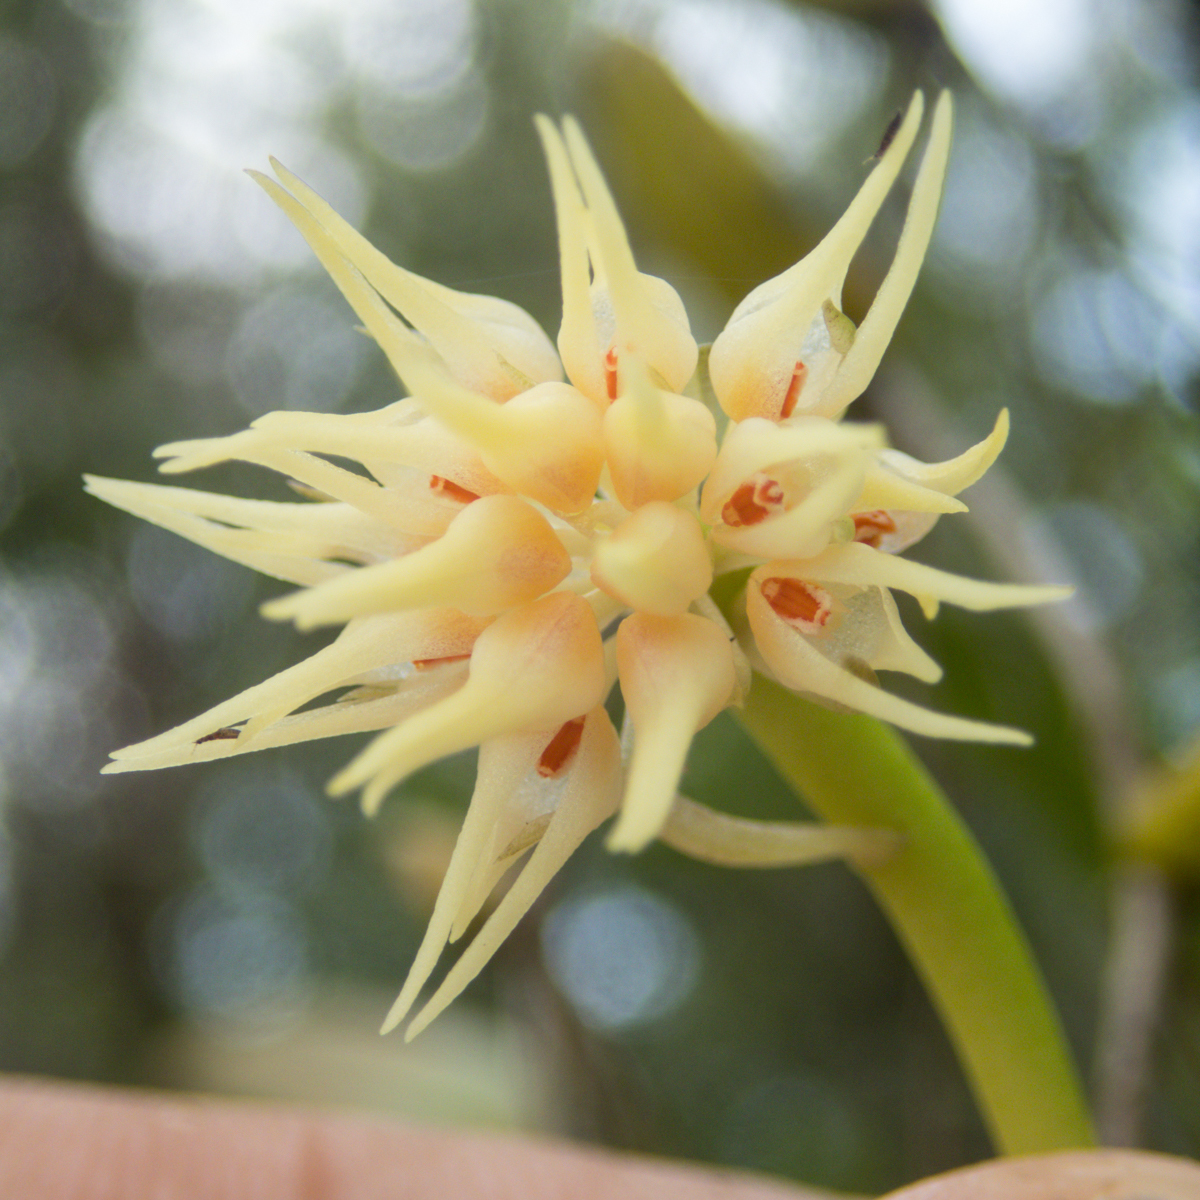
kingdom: Plantae
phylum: Tracheophyta
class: Liliopsida
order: Asparagales
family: Orchidaceae
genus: Bulbophyllum
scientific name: Bulbophyllum odoratissimum
